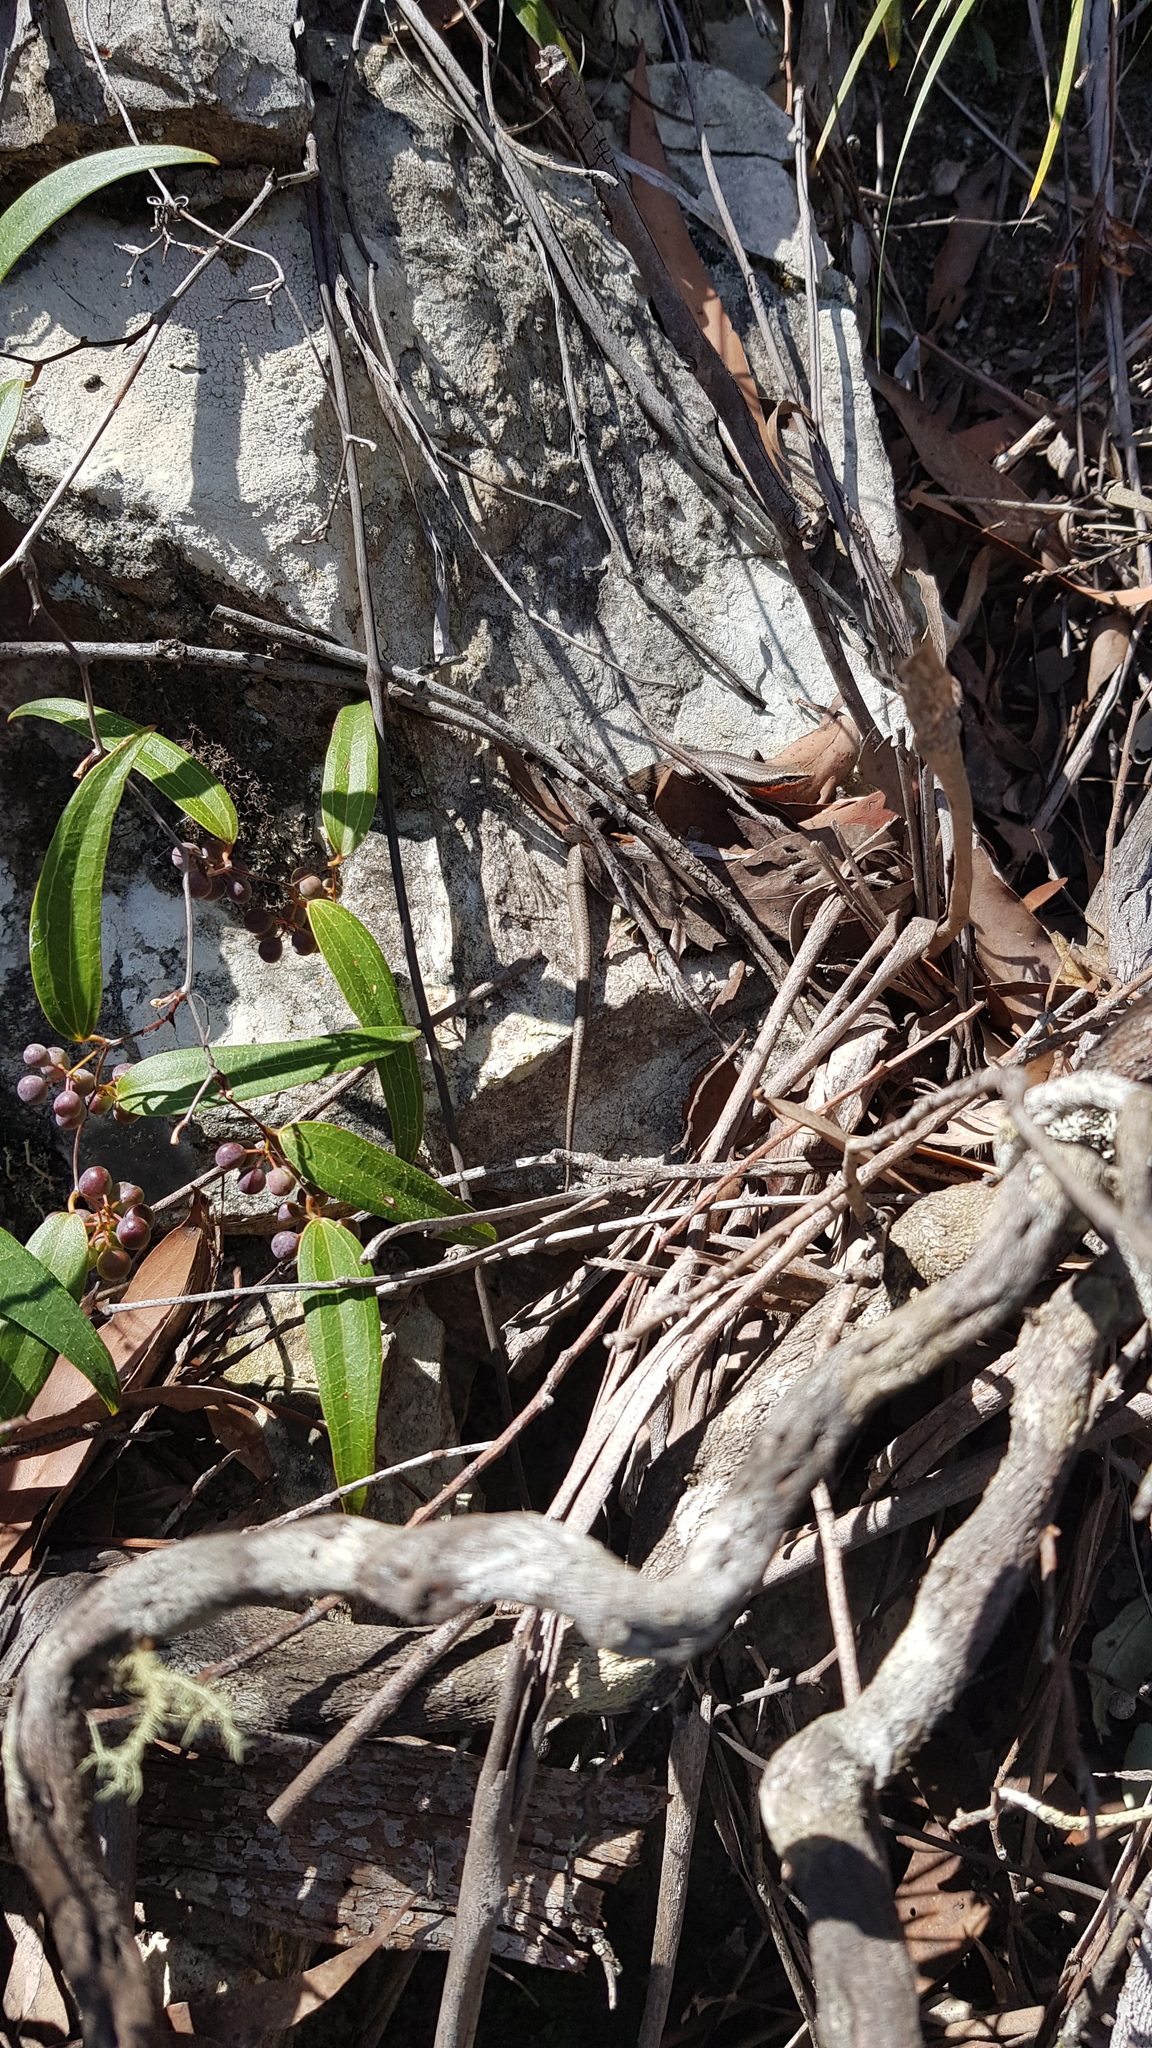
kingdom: Animalia
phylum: Chordata
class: Squamata
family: Scincidae
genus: Acritoscincus
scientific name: Acritoscincus platynotus
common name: Red-throated cool-skink
